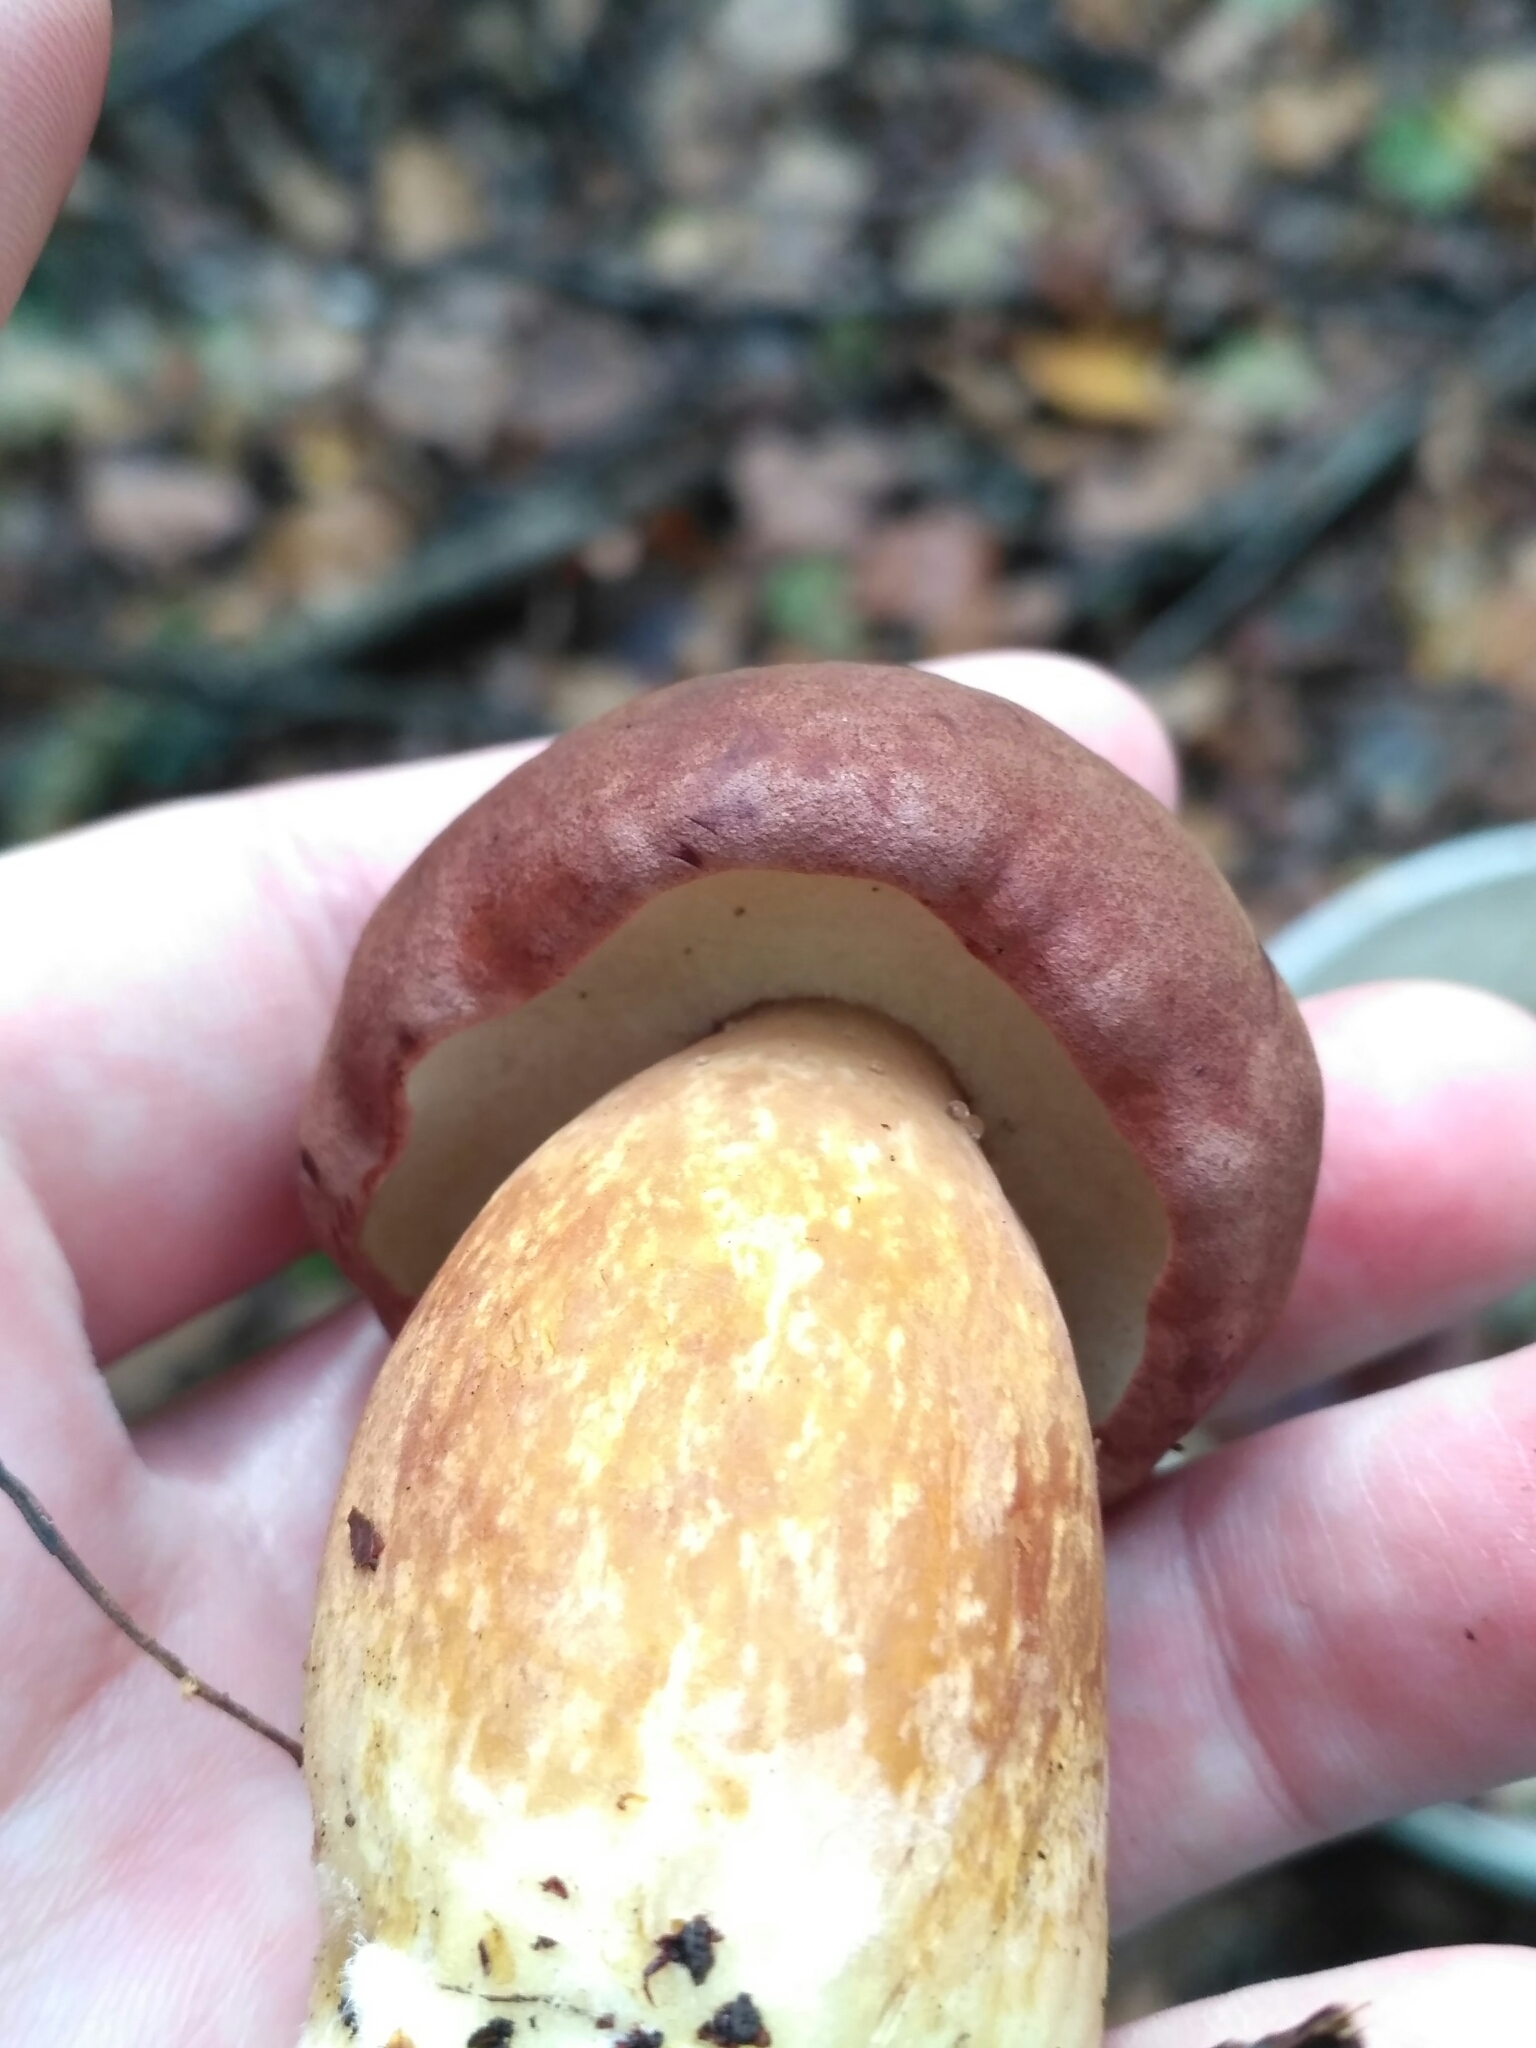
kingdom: Fungi
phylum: Basidiomycota
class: Agaricomycetes
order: Boletales
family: Boletaceae
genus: Imleria
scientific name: Imleria badia
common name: Bay bolete
